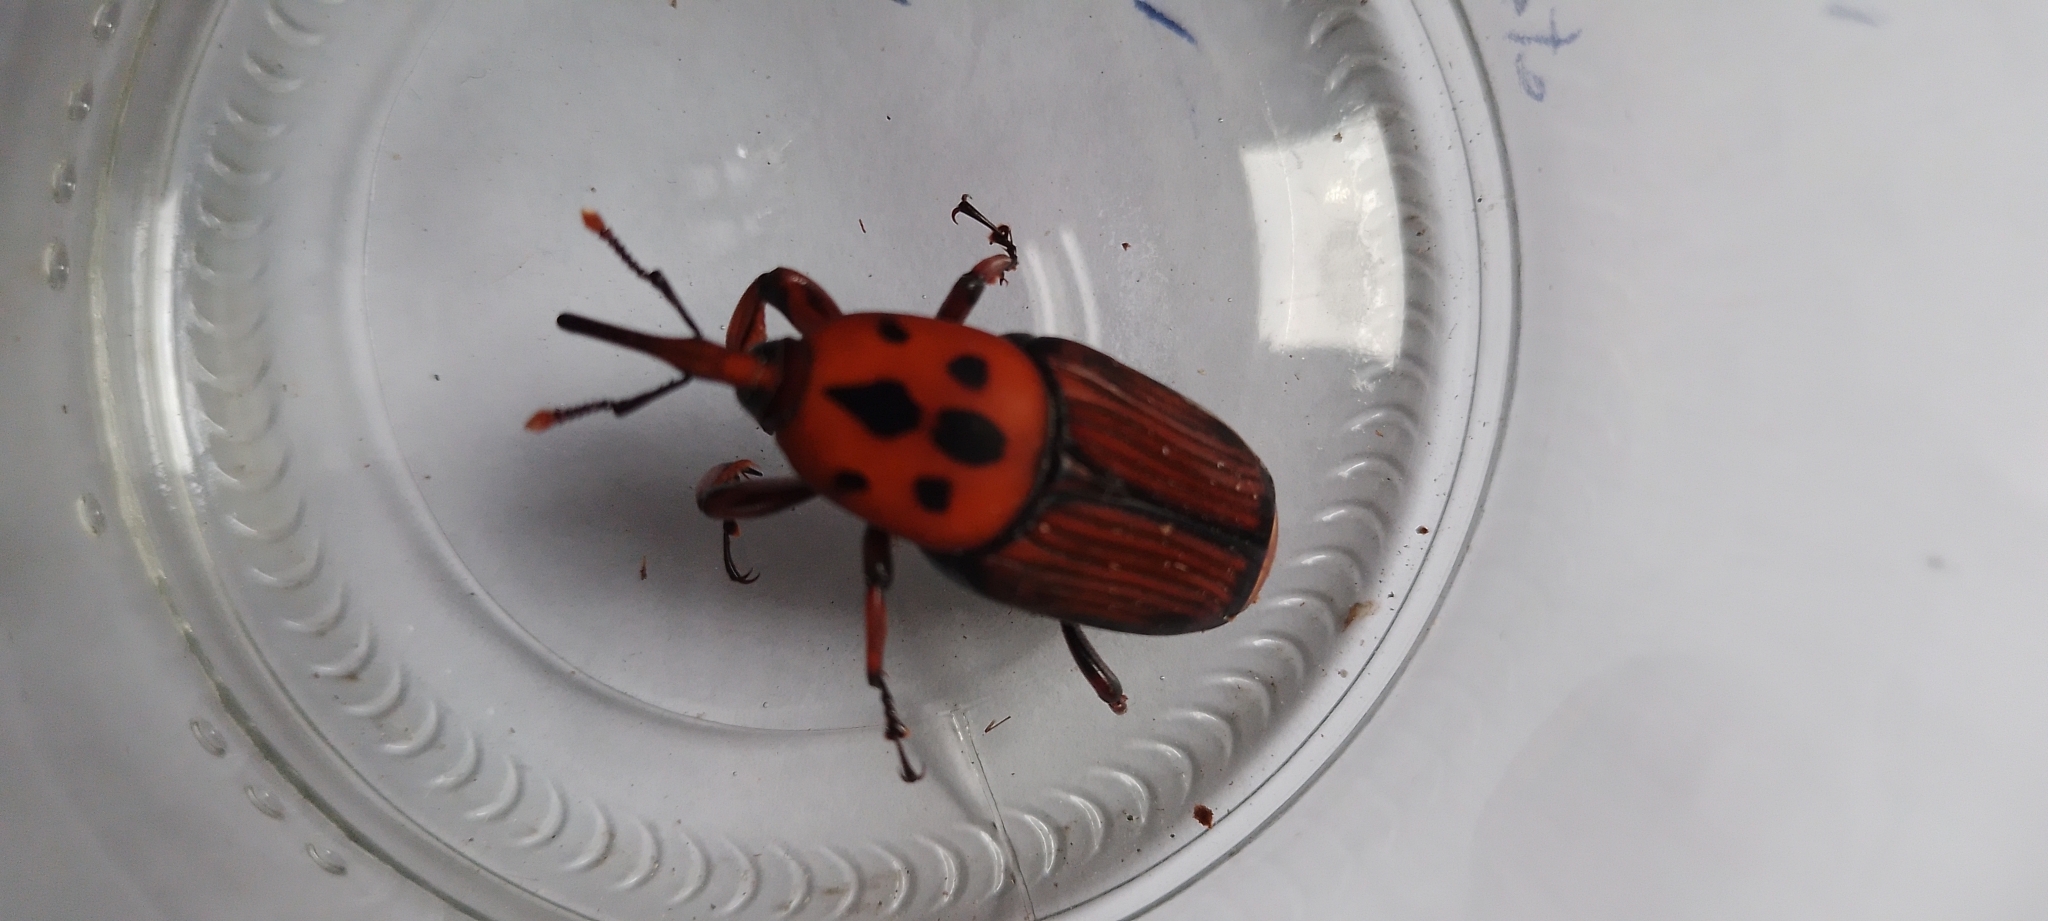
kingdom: Animalia
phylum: Arthropoda
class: Insecta
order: Coleoptera
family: Dryophthoridae
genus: Rhynchophorus
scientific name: Rhynchophorus ferrugineus
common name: Red palm weevil
